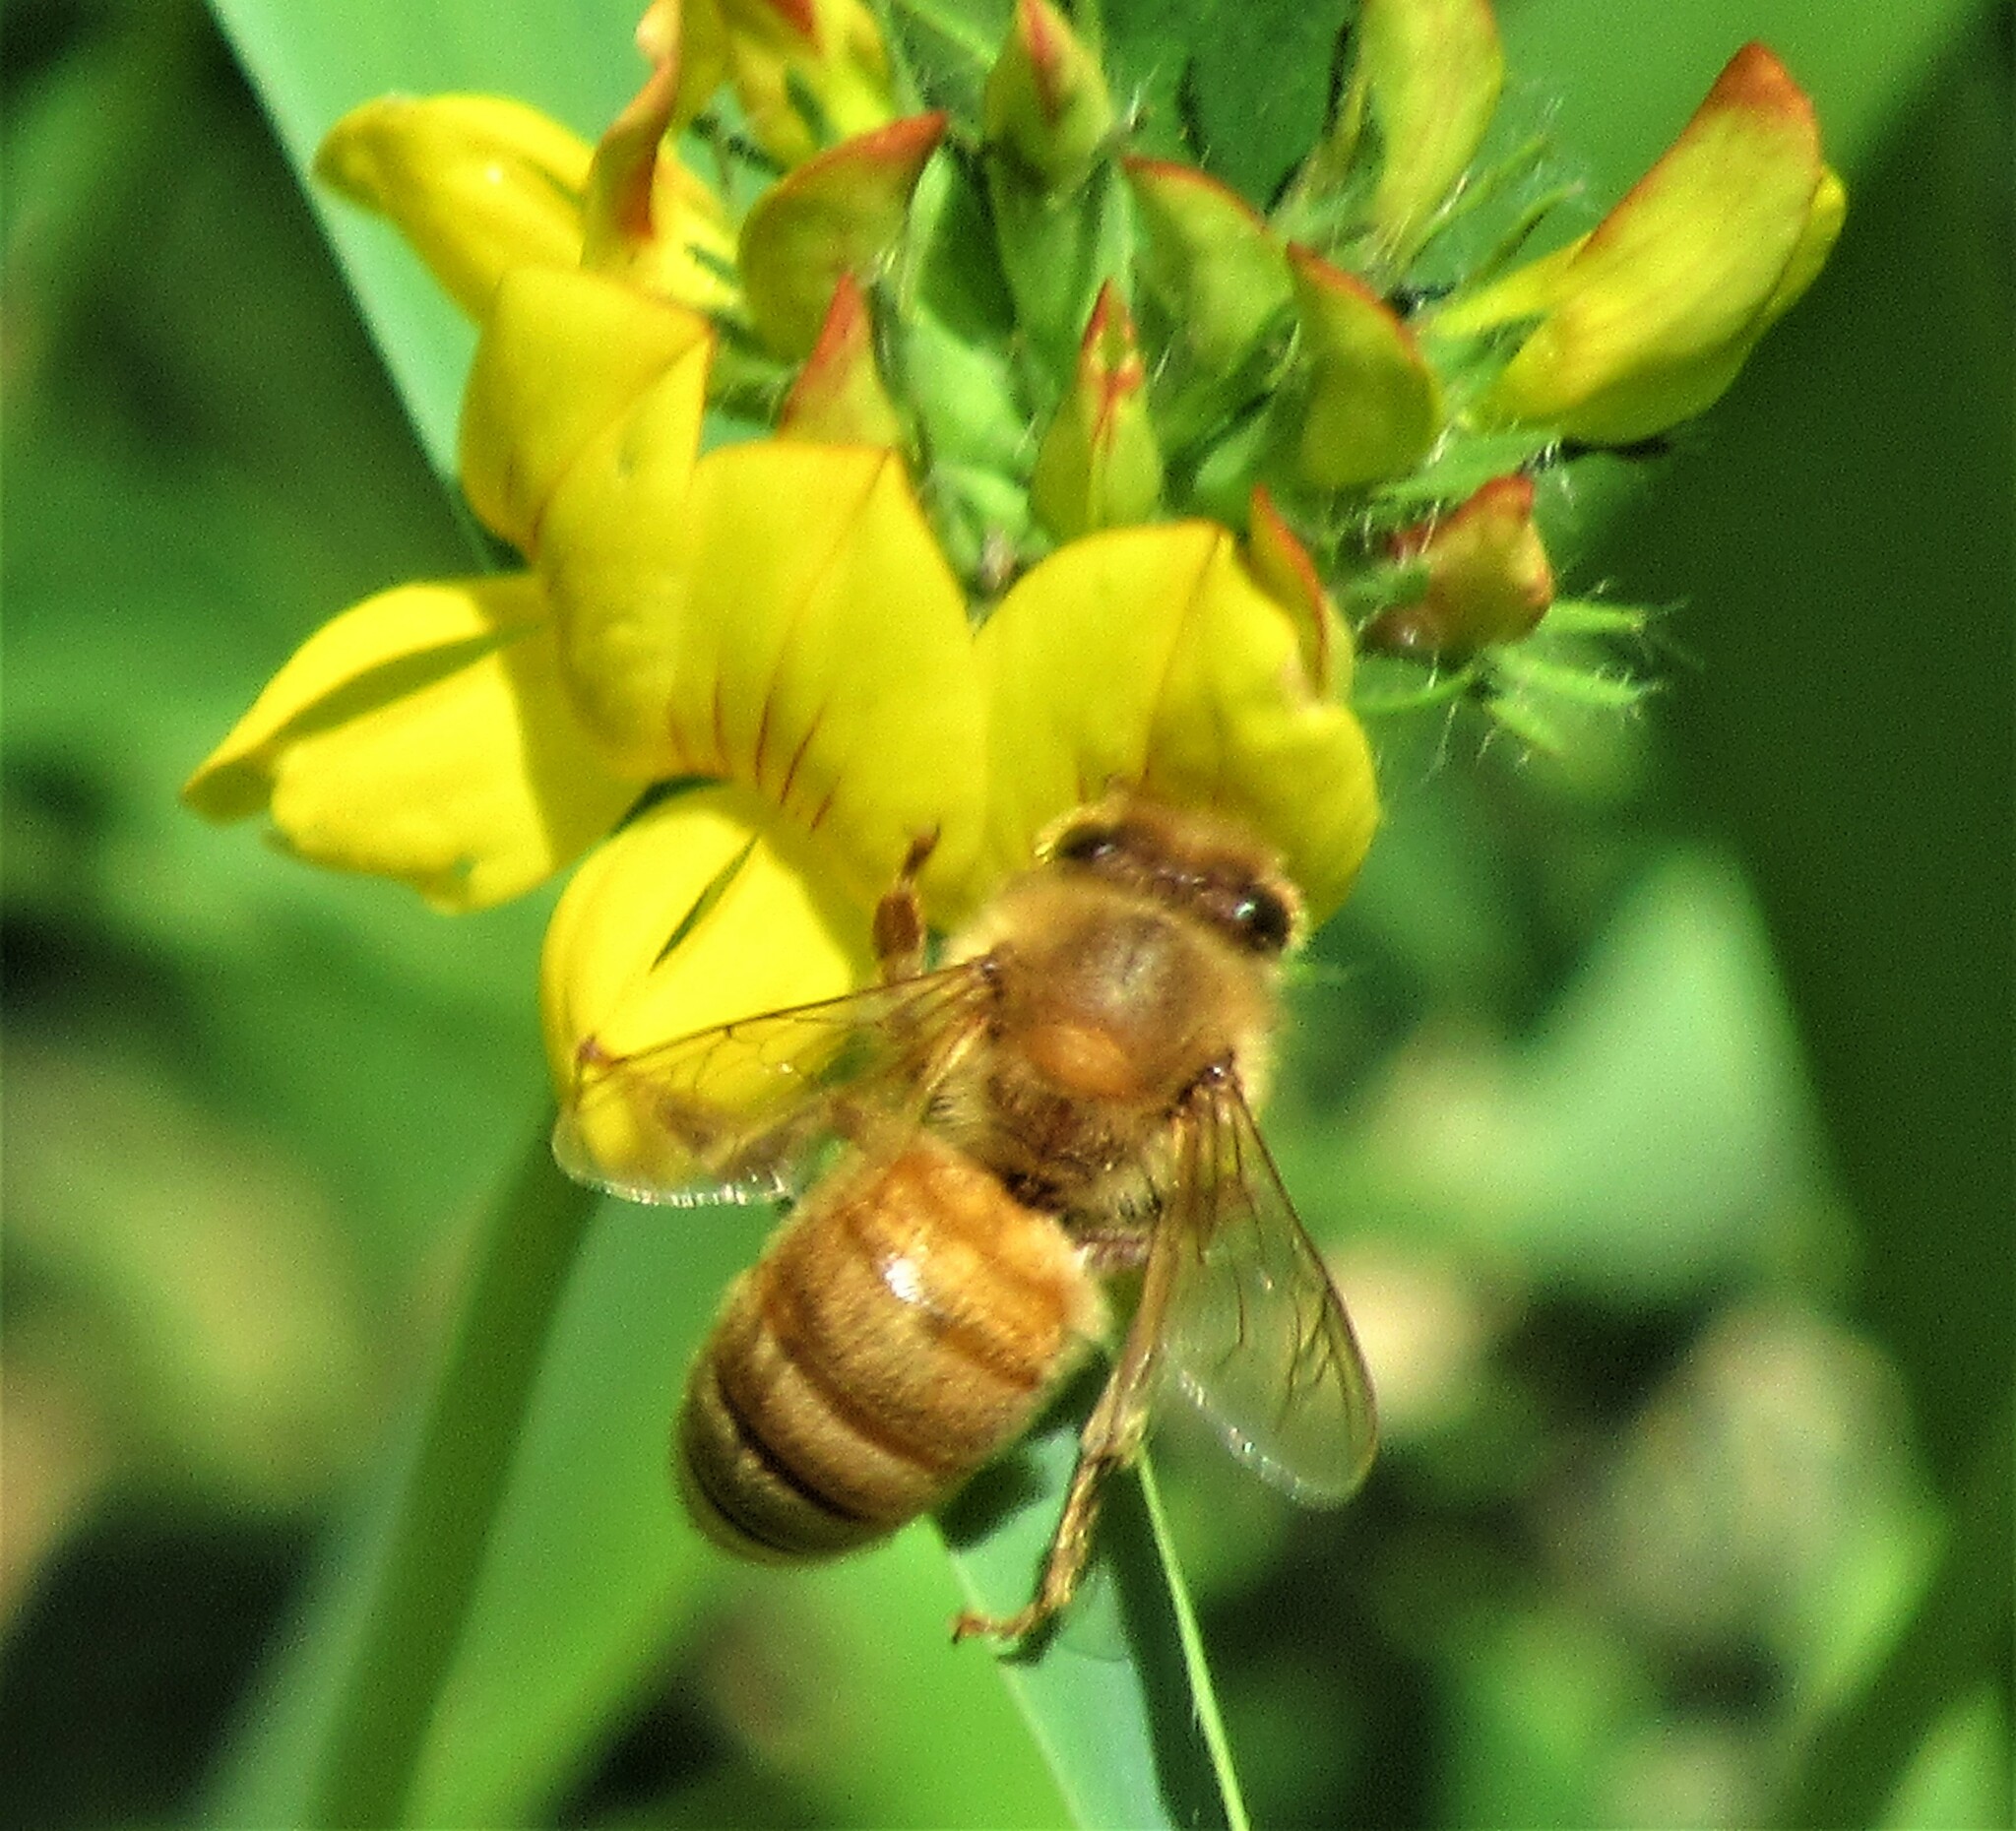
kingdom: Animalia
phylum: Arthropoda
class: Insecta
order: Hymenoptera
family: Apidae
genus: Apis
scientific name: Apis mellifera
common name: Honey bee
